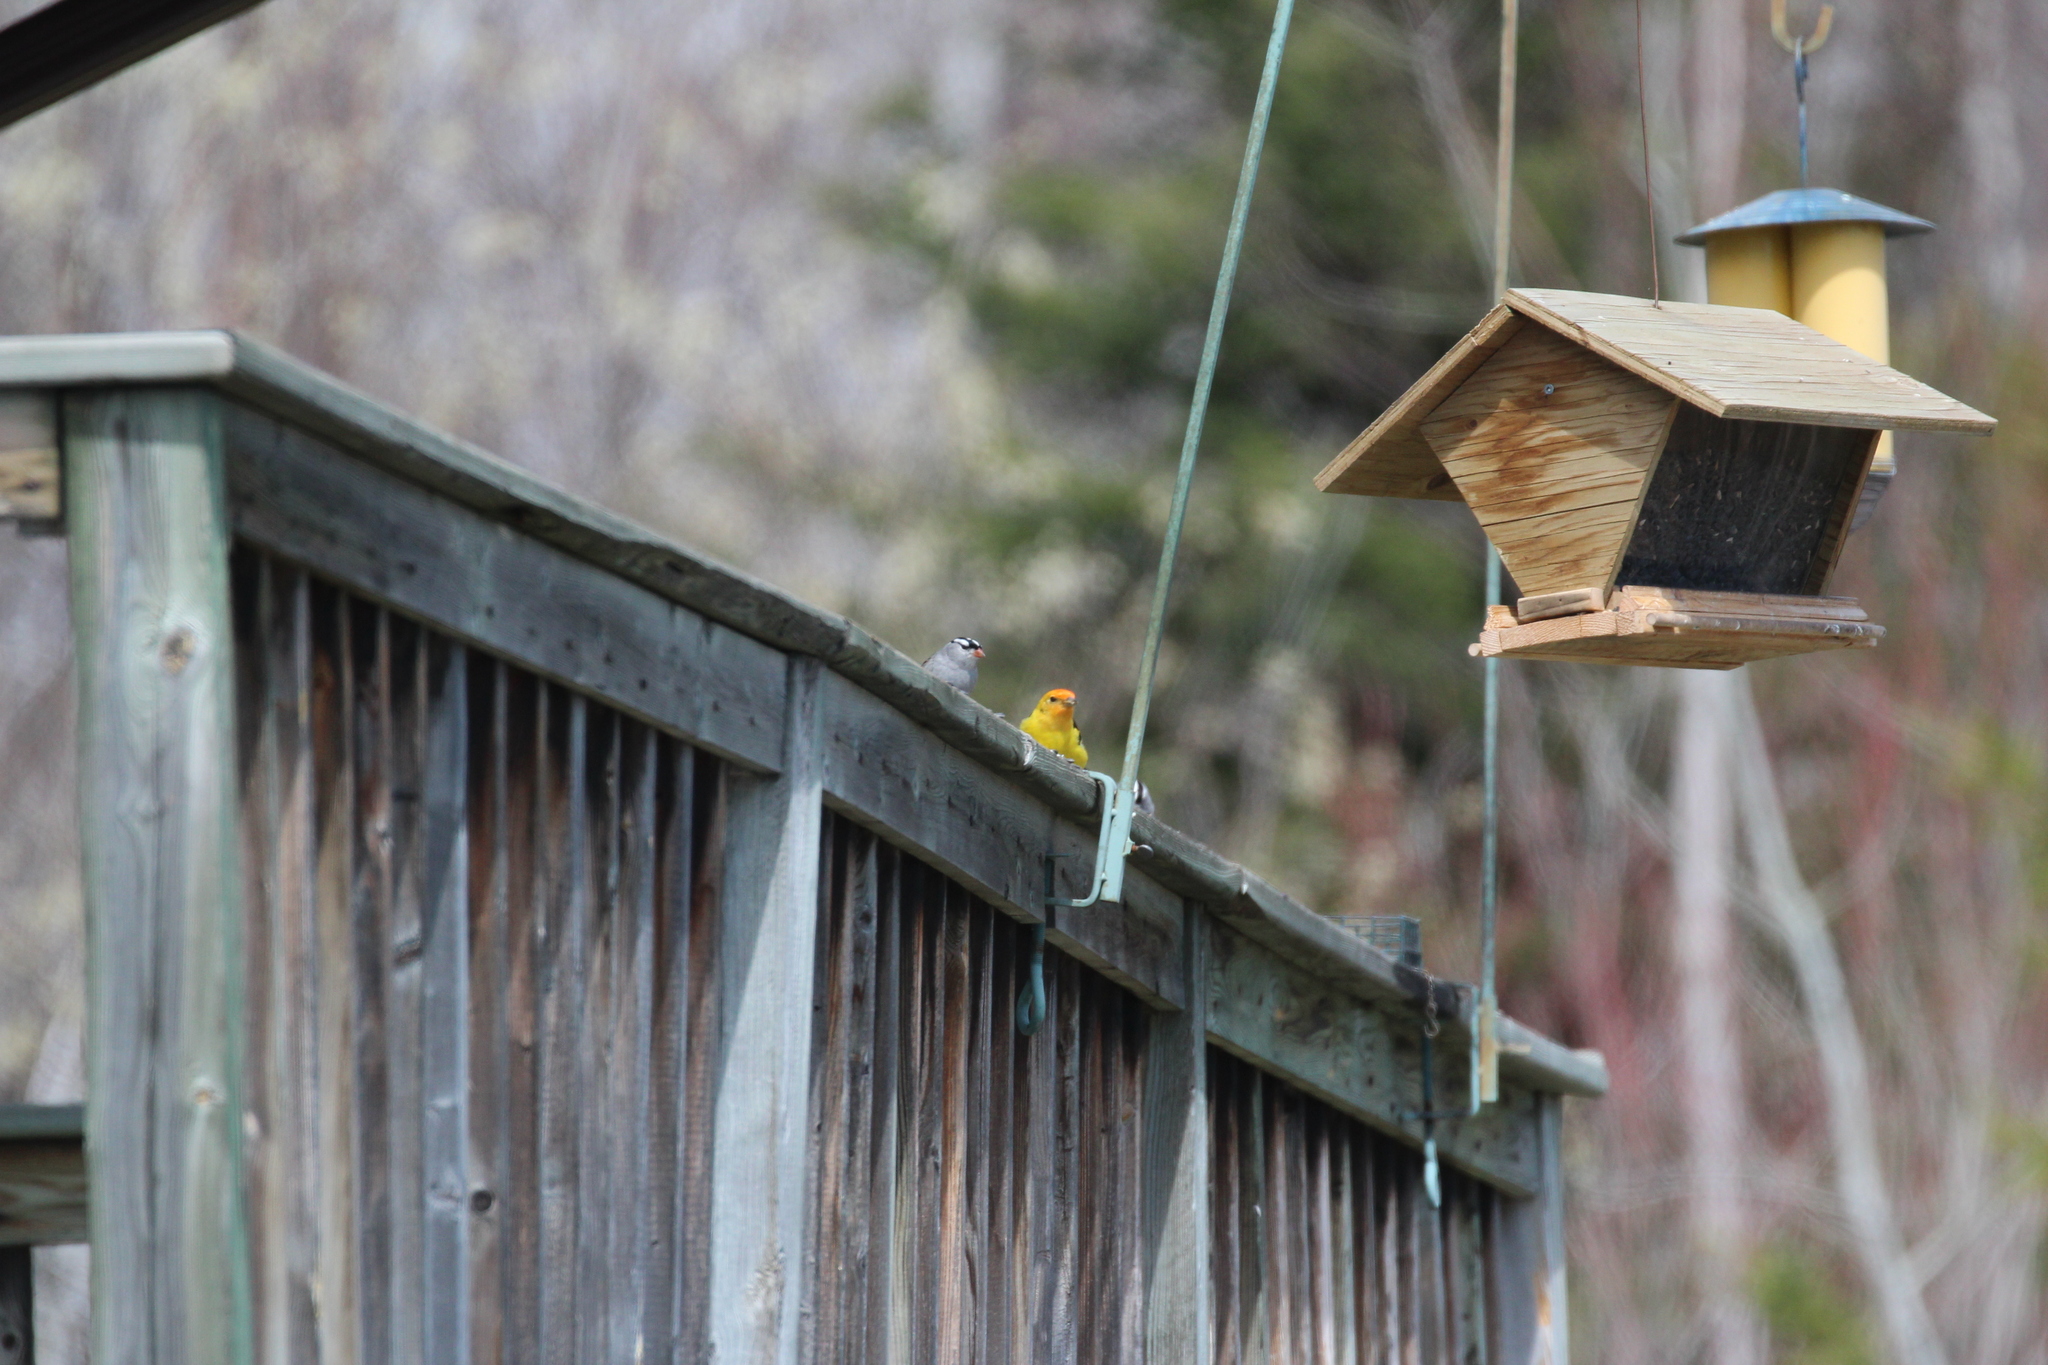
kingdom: Animalia
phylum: Chordata
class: Aves
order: Passeriformes
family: Passerellidae
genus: Zonotrichia
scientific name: Zonotrichia leucophrys
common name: White-crowned sparrow
